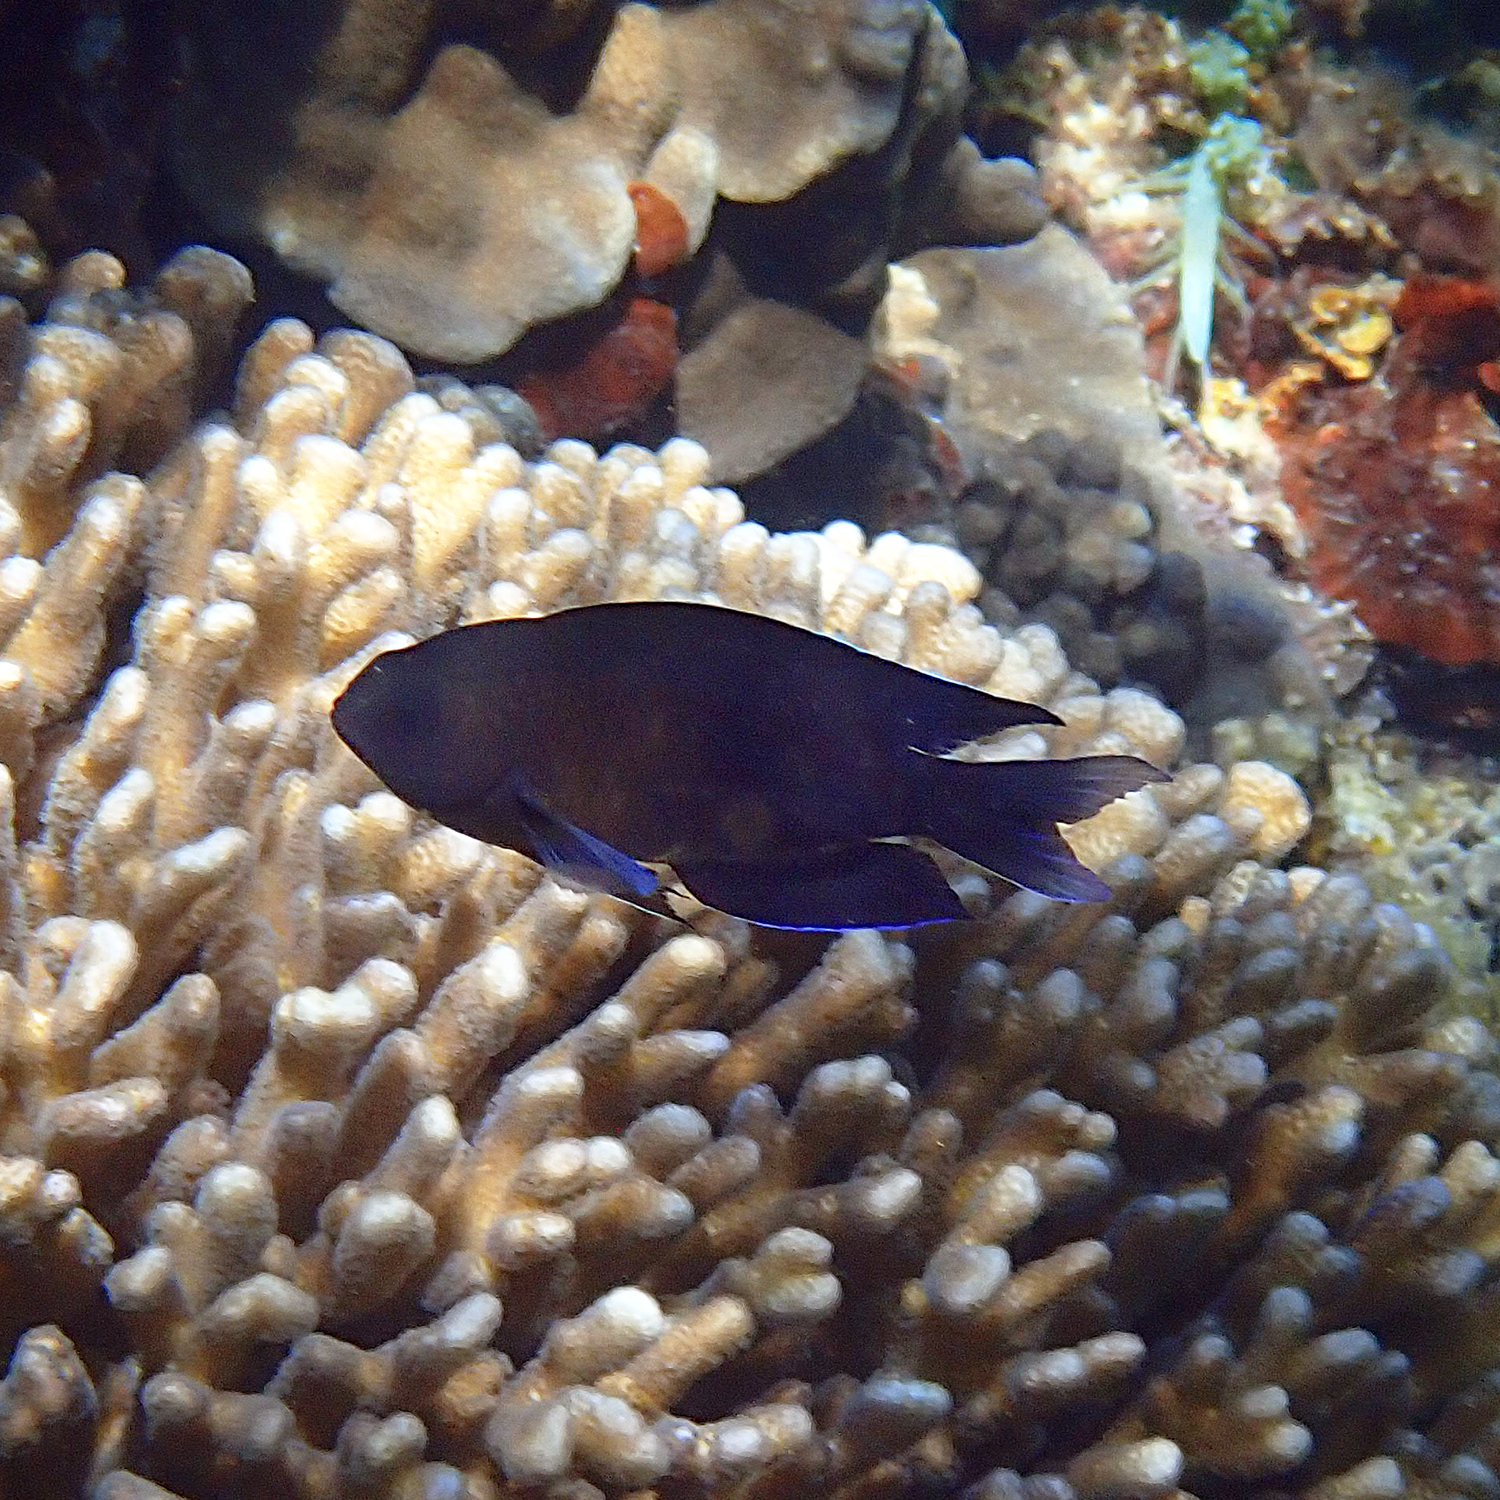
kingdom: Animalia
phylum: Chordata
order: Perciformes
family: Pomacentridae
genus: Chrysiptera
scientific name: Chrysiptera notialis
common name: Southern demoiselle
